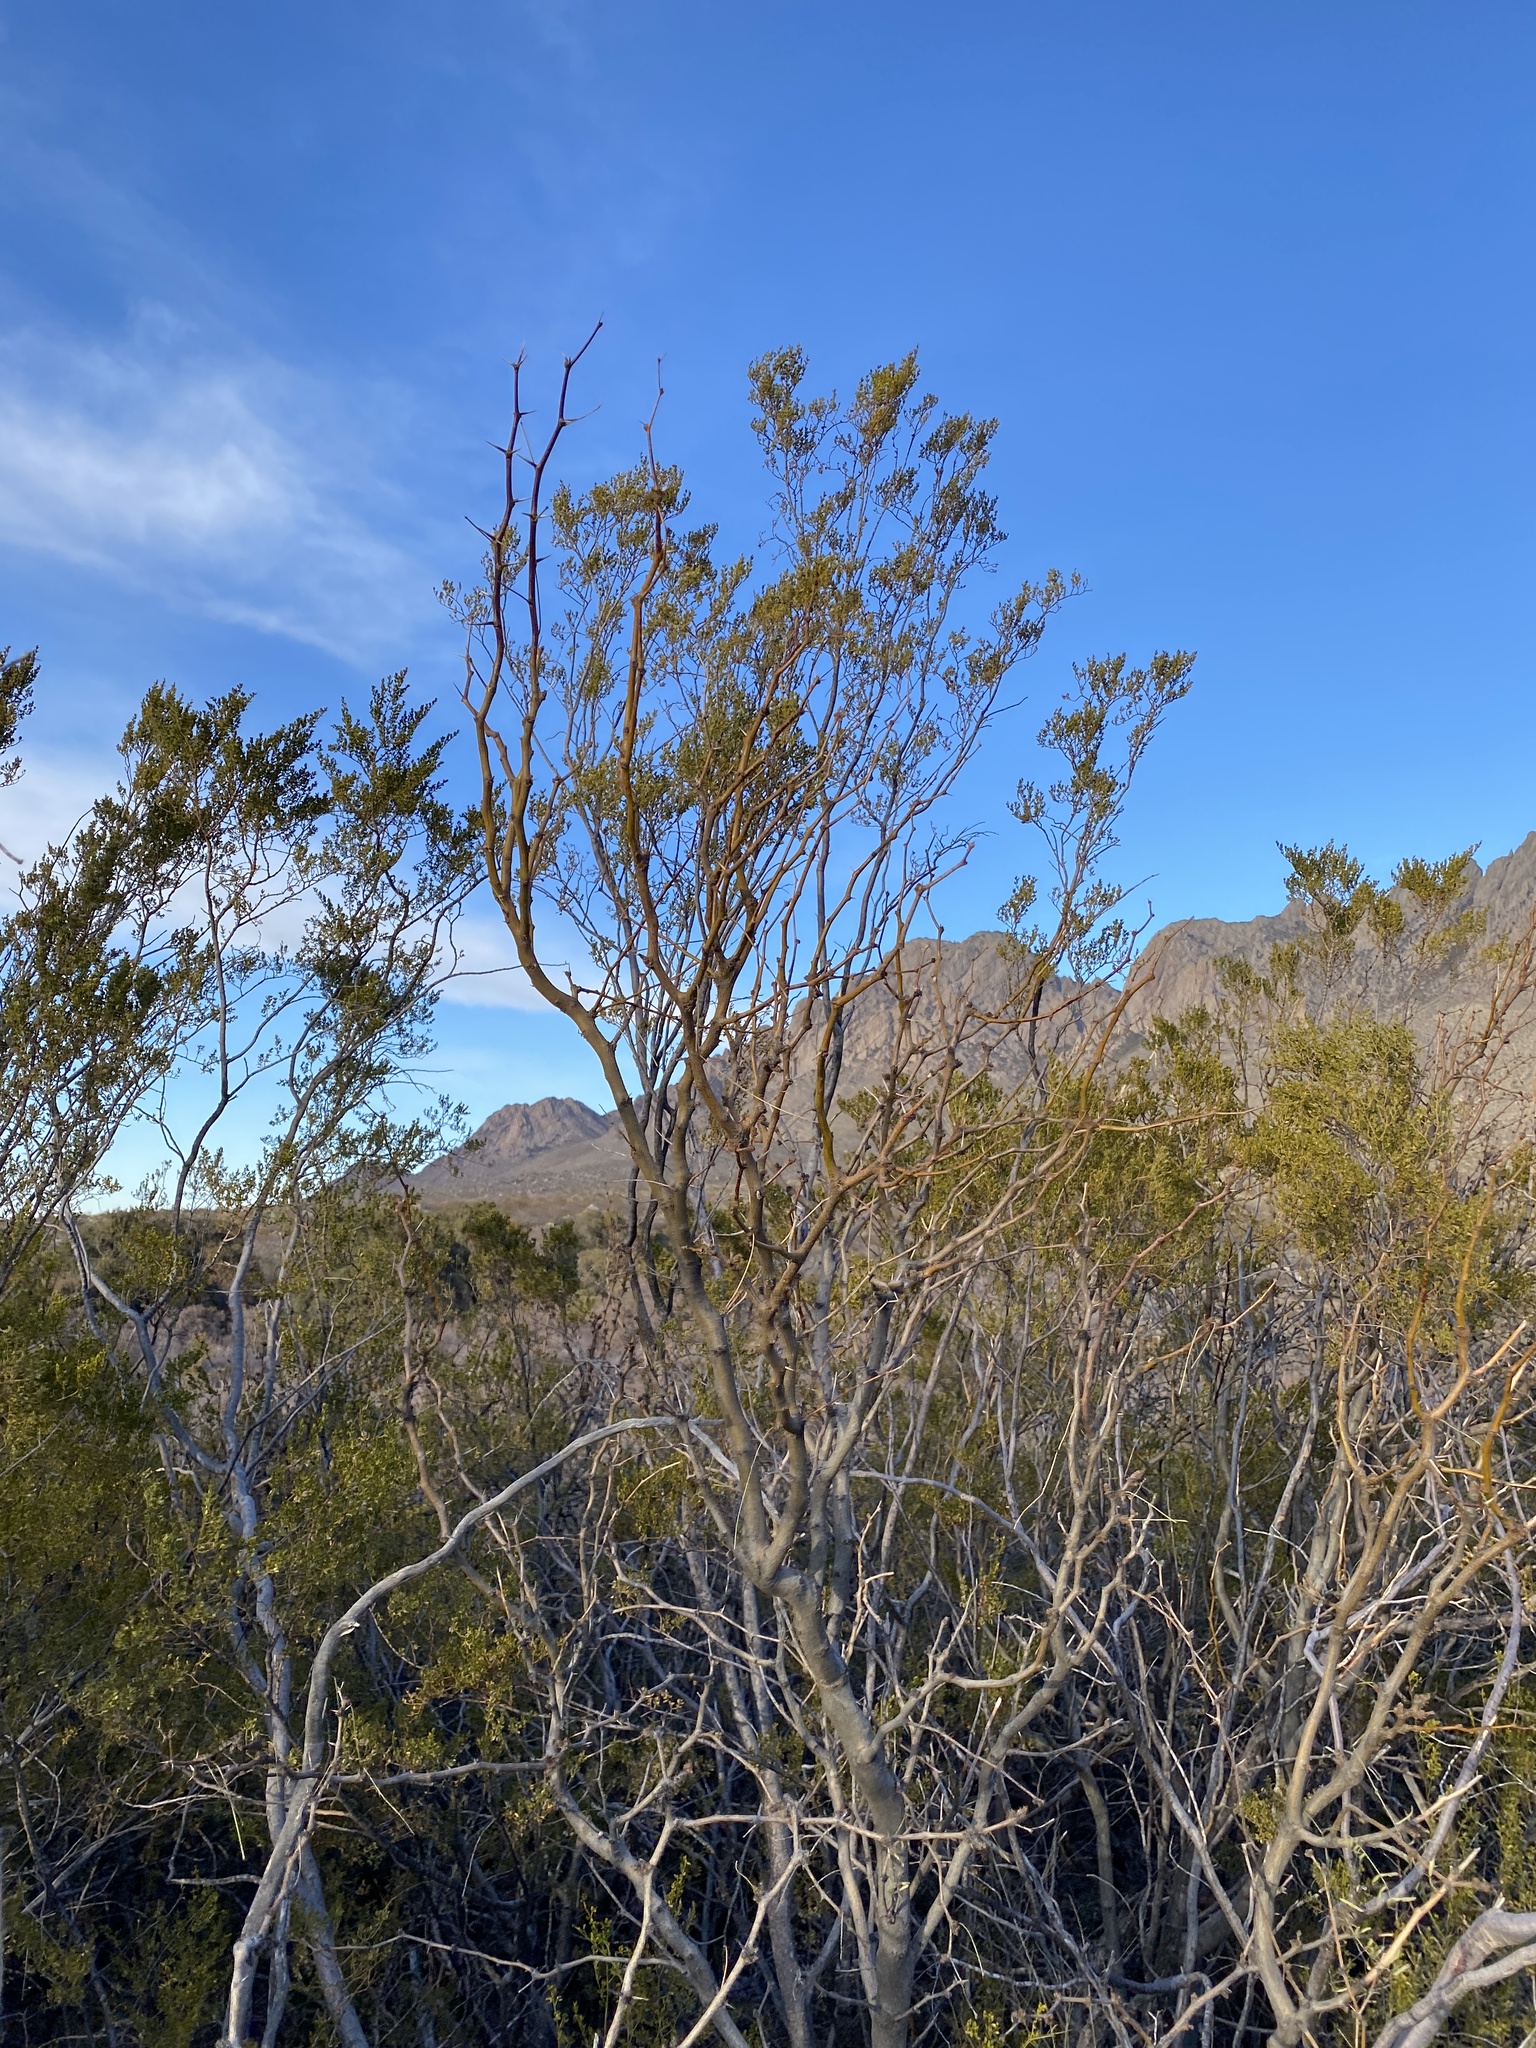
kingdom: Plantae
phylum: Tracheophyta
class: Magnoliopsida
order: Zygophyllales
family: Zygophyllaceae
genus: Larrea
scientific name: Larrea tridentata
